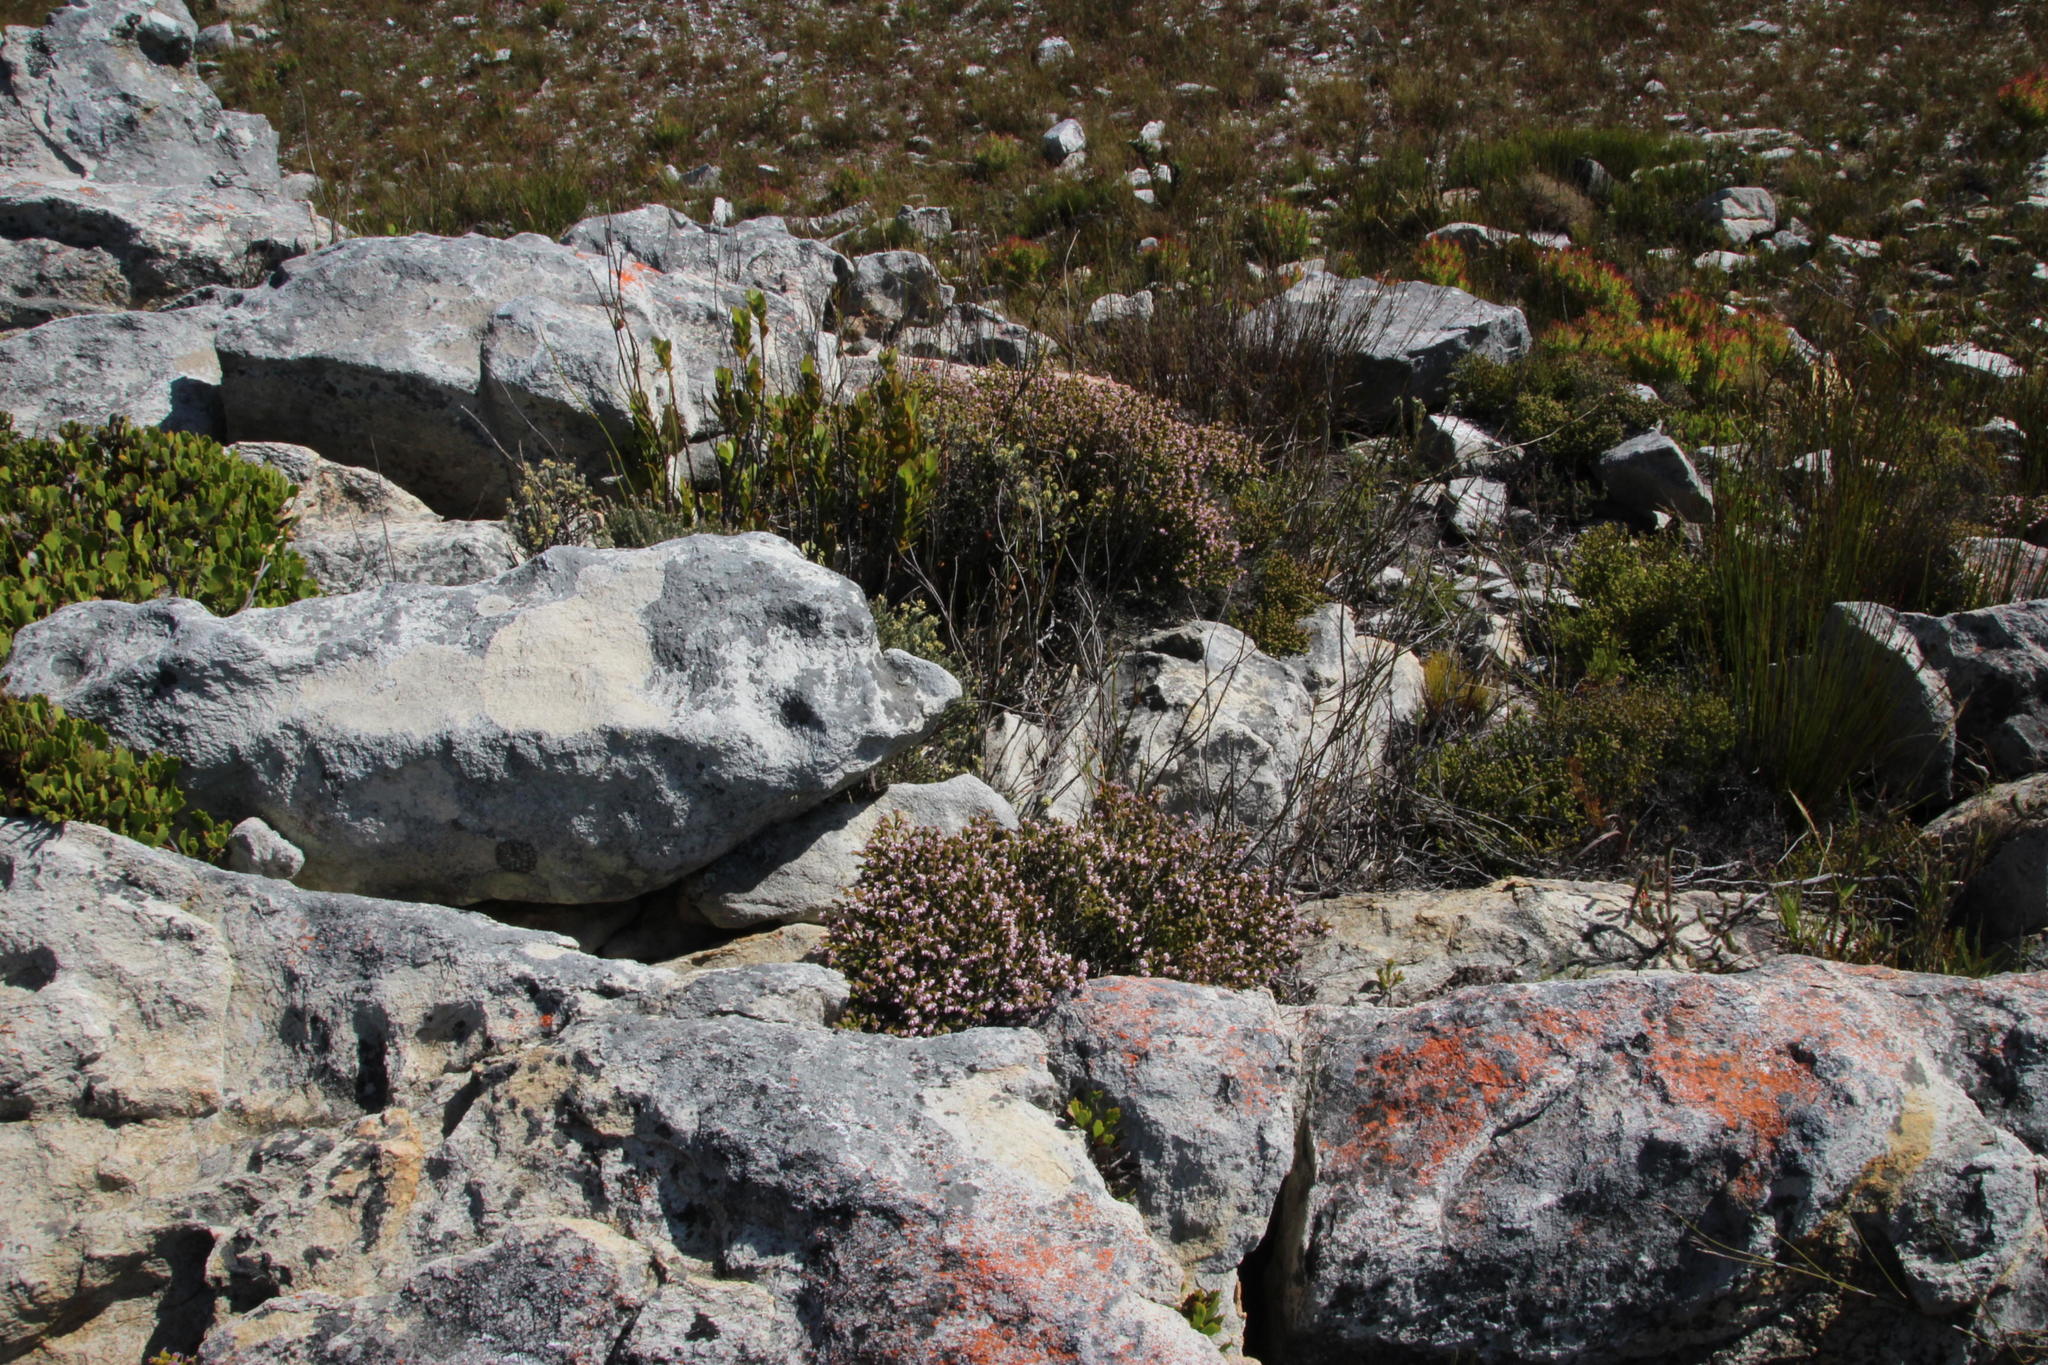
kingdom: Plantae
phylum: Tracheophyta
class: Magnoliopsida
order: Ericales
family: Ericaceae
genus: Erica
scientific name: Erica ericoides
